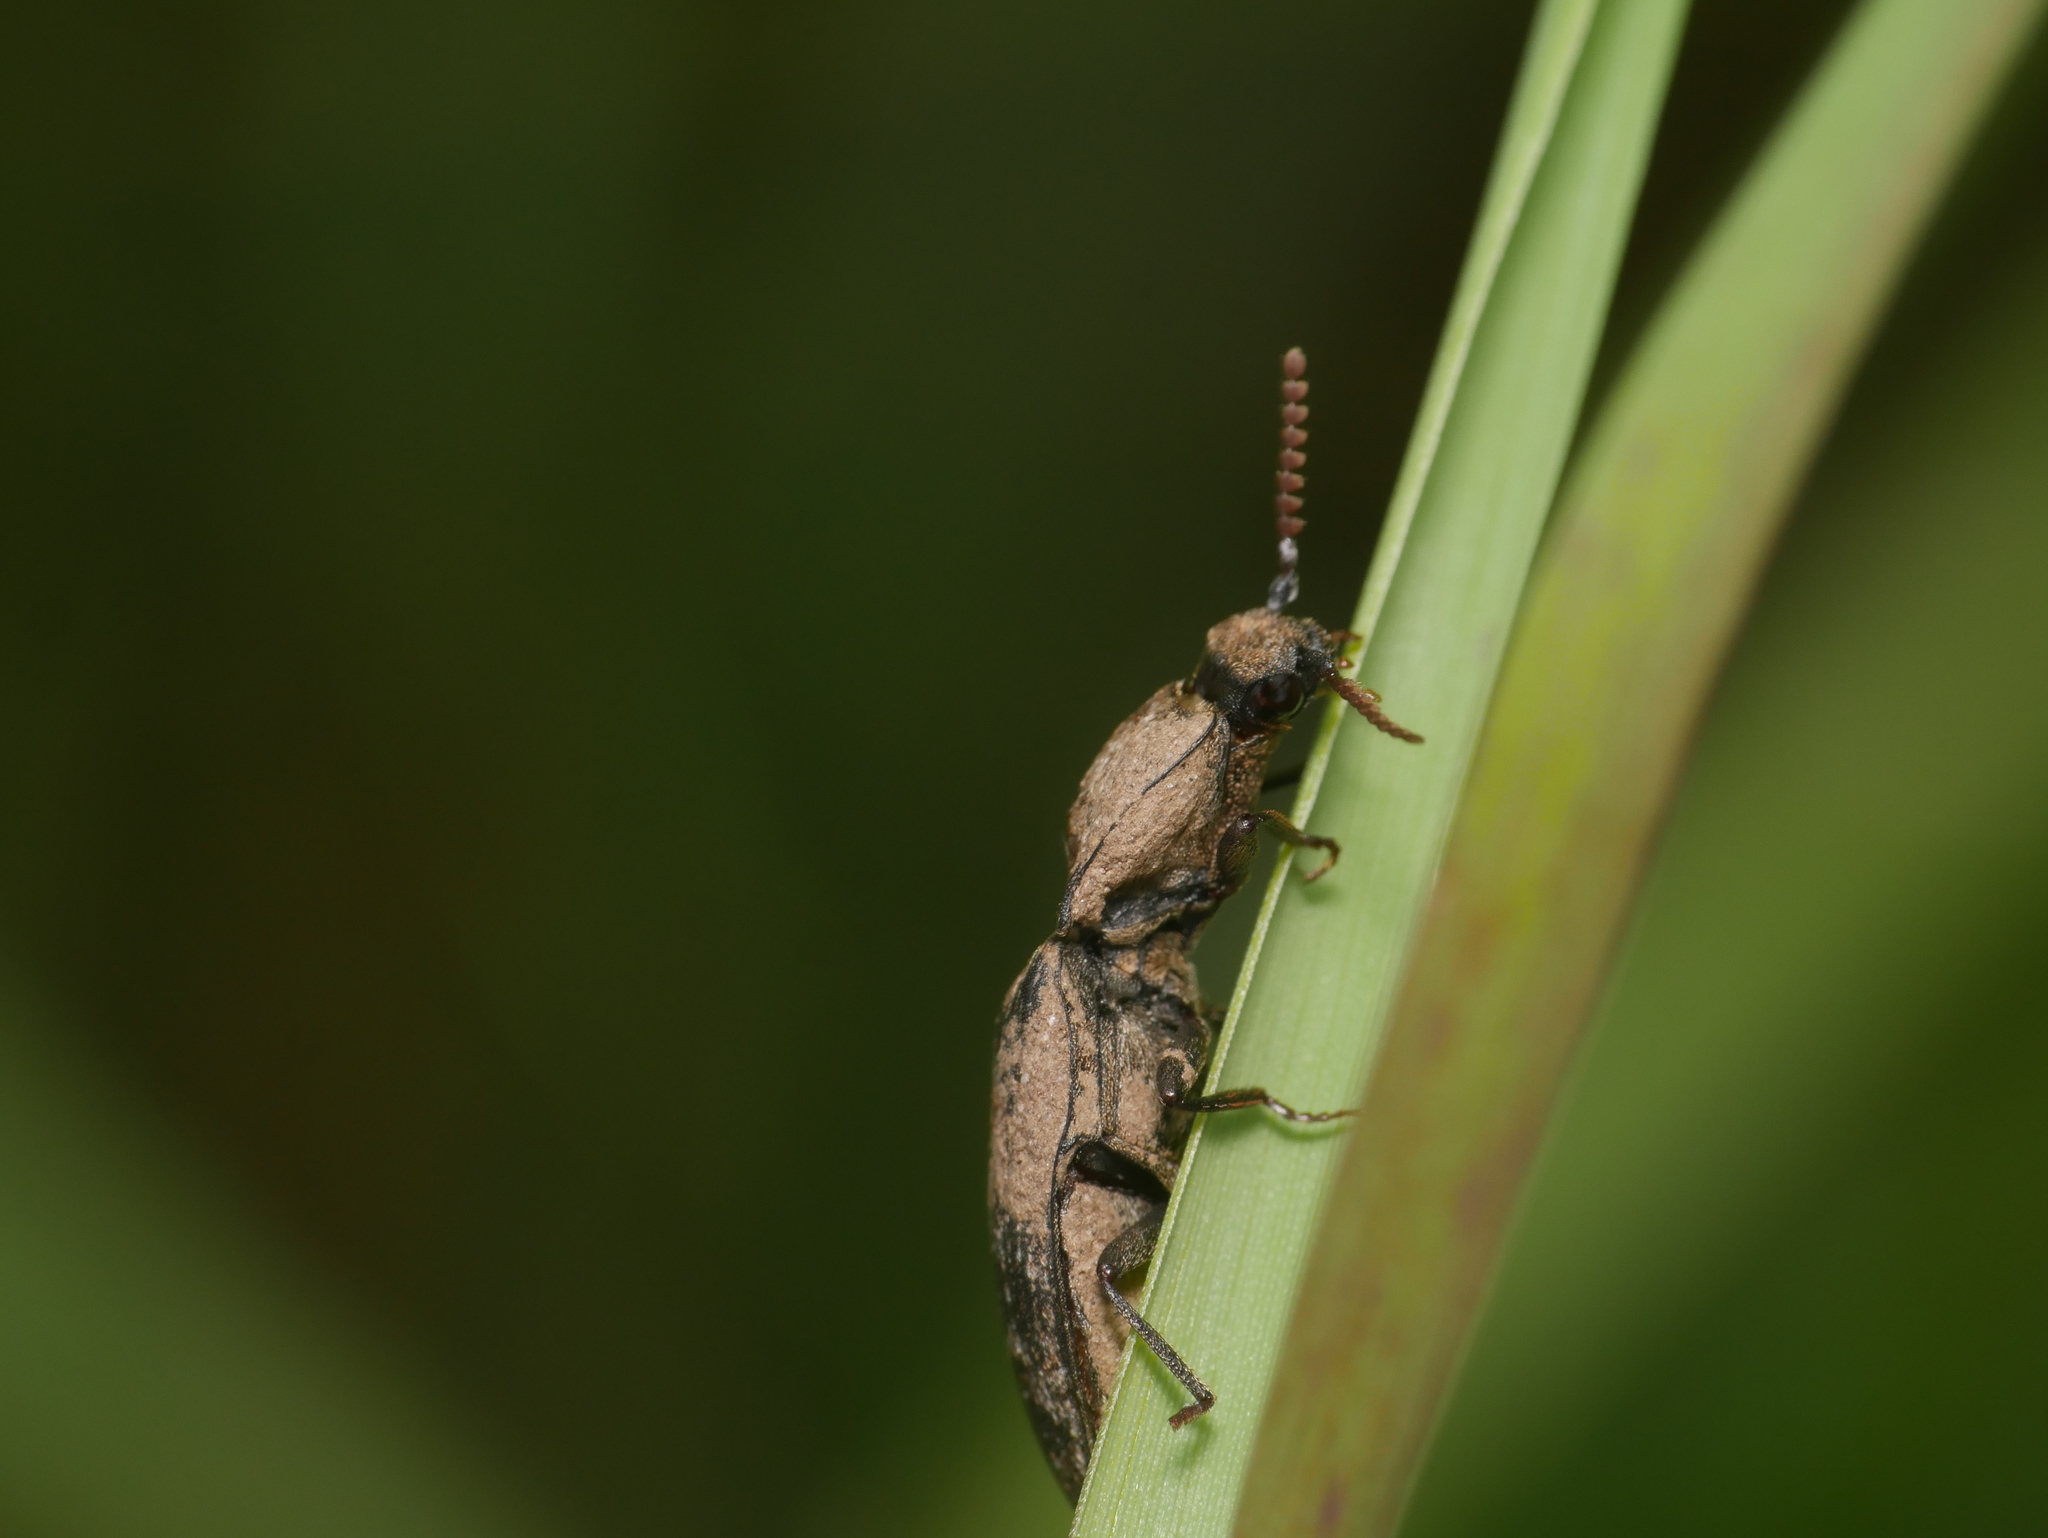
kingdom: Animalia
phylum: Arthropoda
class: Insecta
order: Coleoptera
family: Elateridae
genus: Agrypnus
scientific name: Agrypnus murinus
